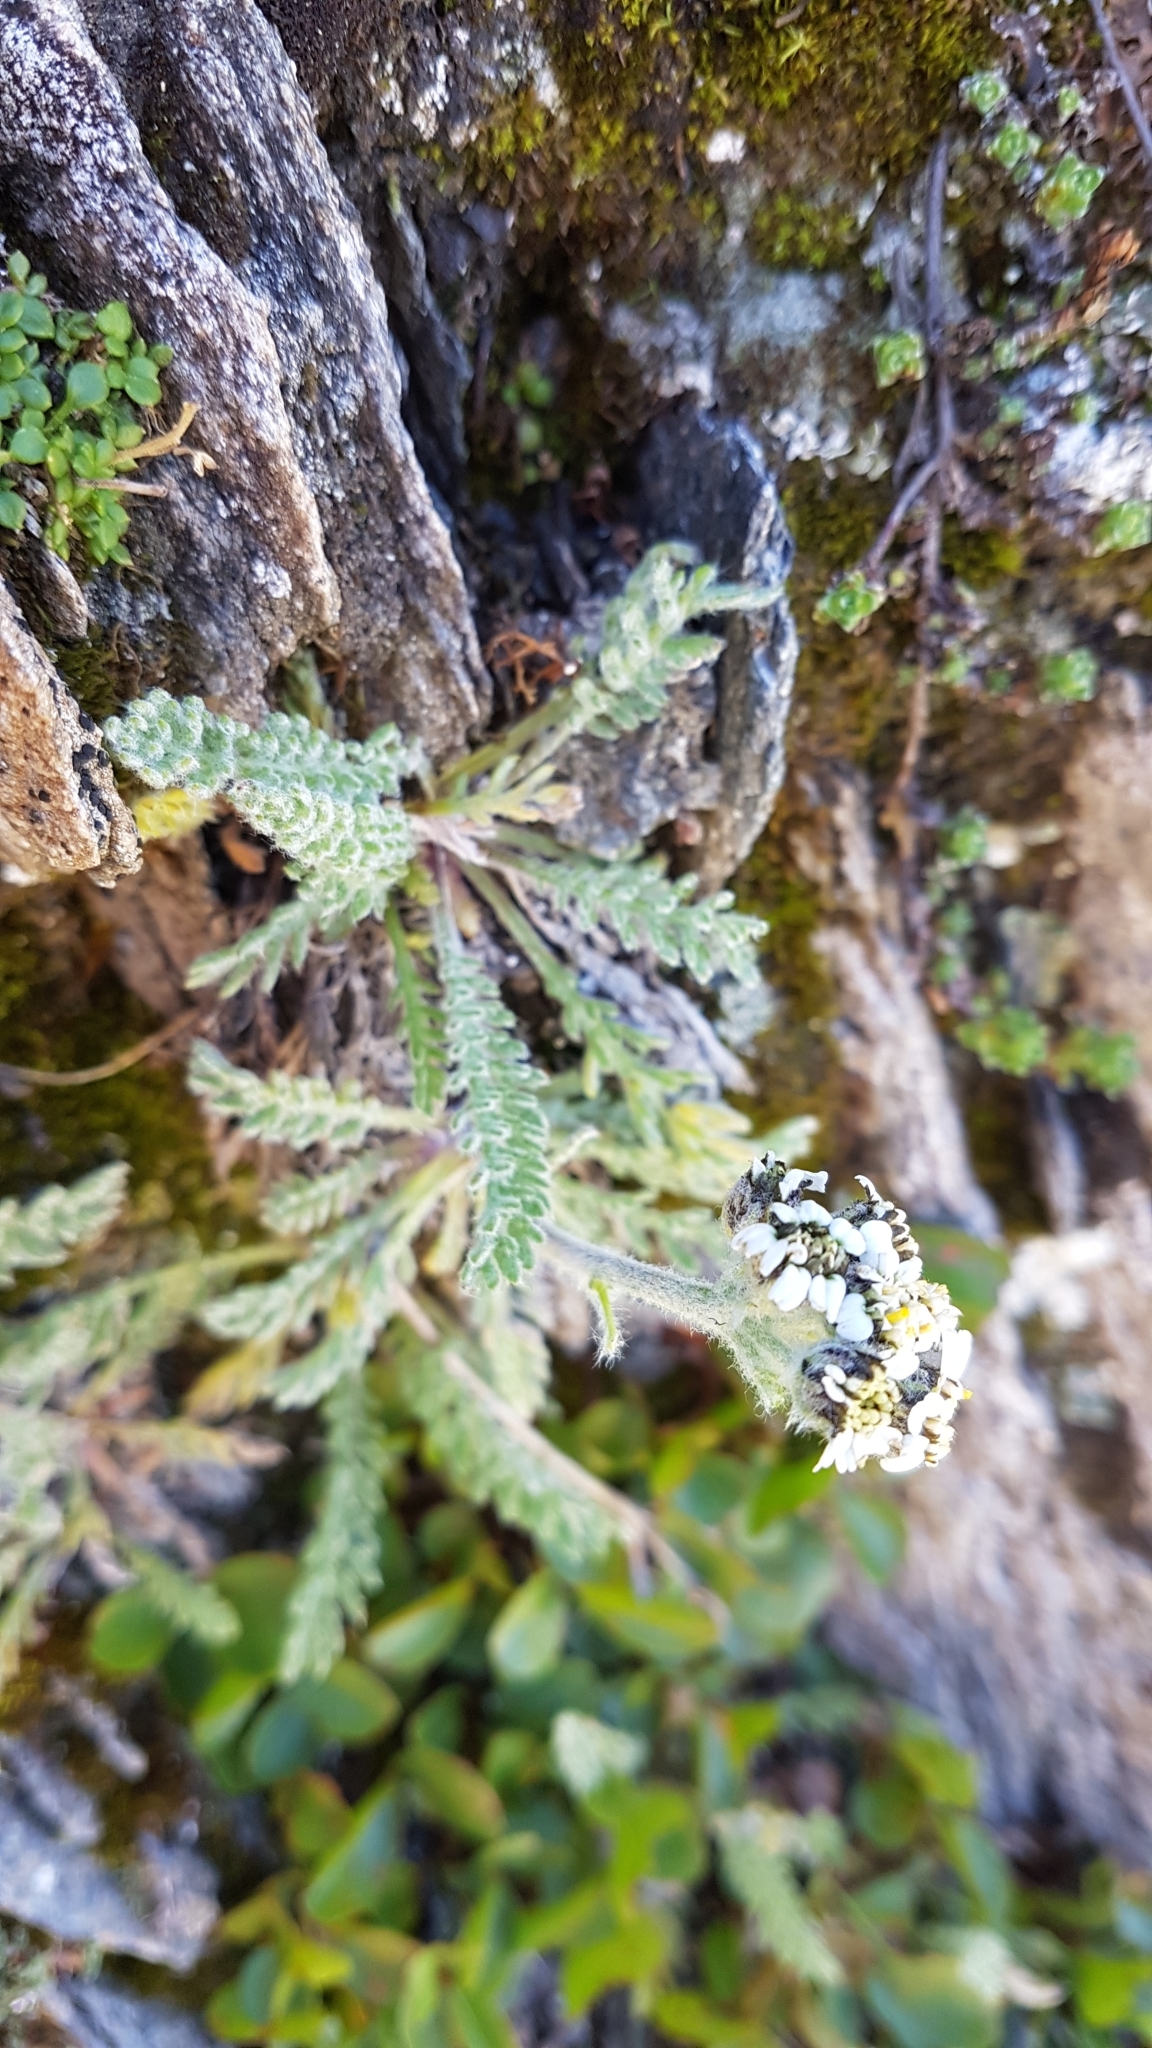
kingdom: Plantae
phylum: Tracheophyta
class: Magnoliopsida
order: Asterales
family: Asteraceae
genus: Achillea
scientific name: Achillea nana
